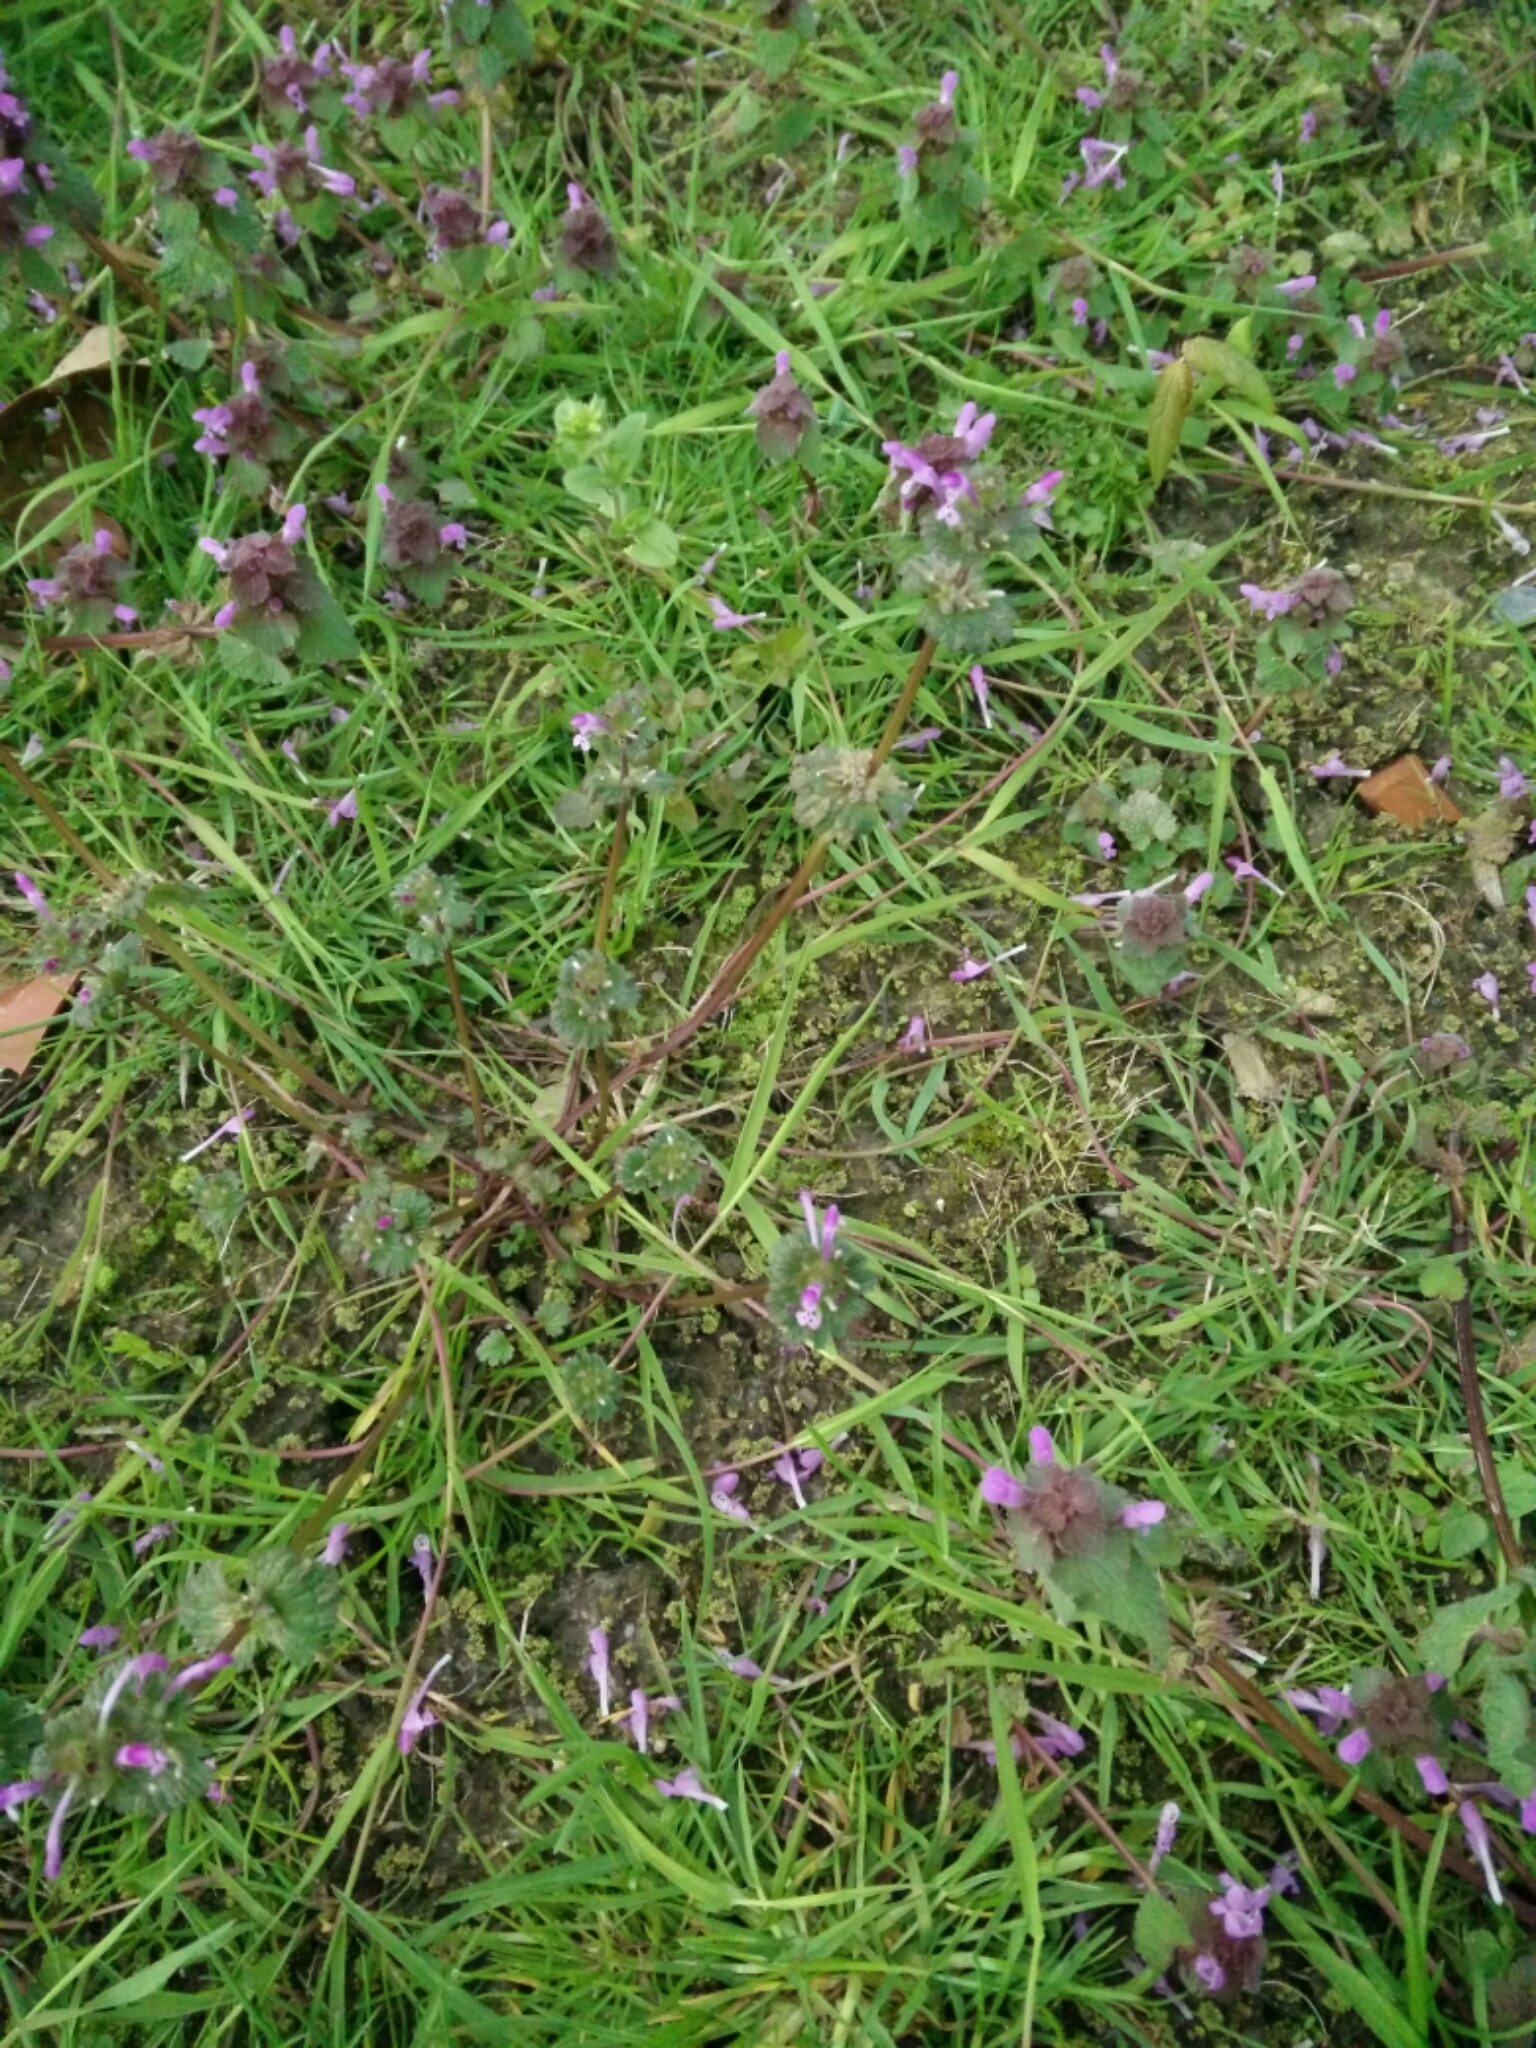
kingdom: Plantae
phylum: Tracheophyta
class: Magnoliopsida
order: Lamiales
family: Lamiaceae
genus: Lamium
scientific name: Lamium amplexicaule
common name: Henbit dead-nettle
